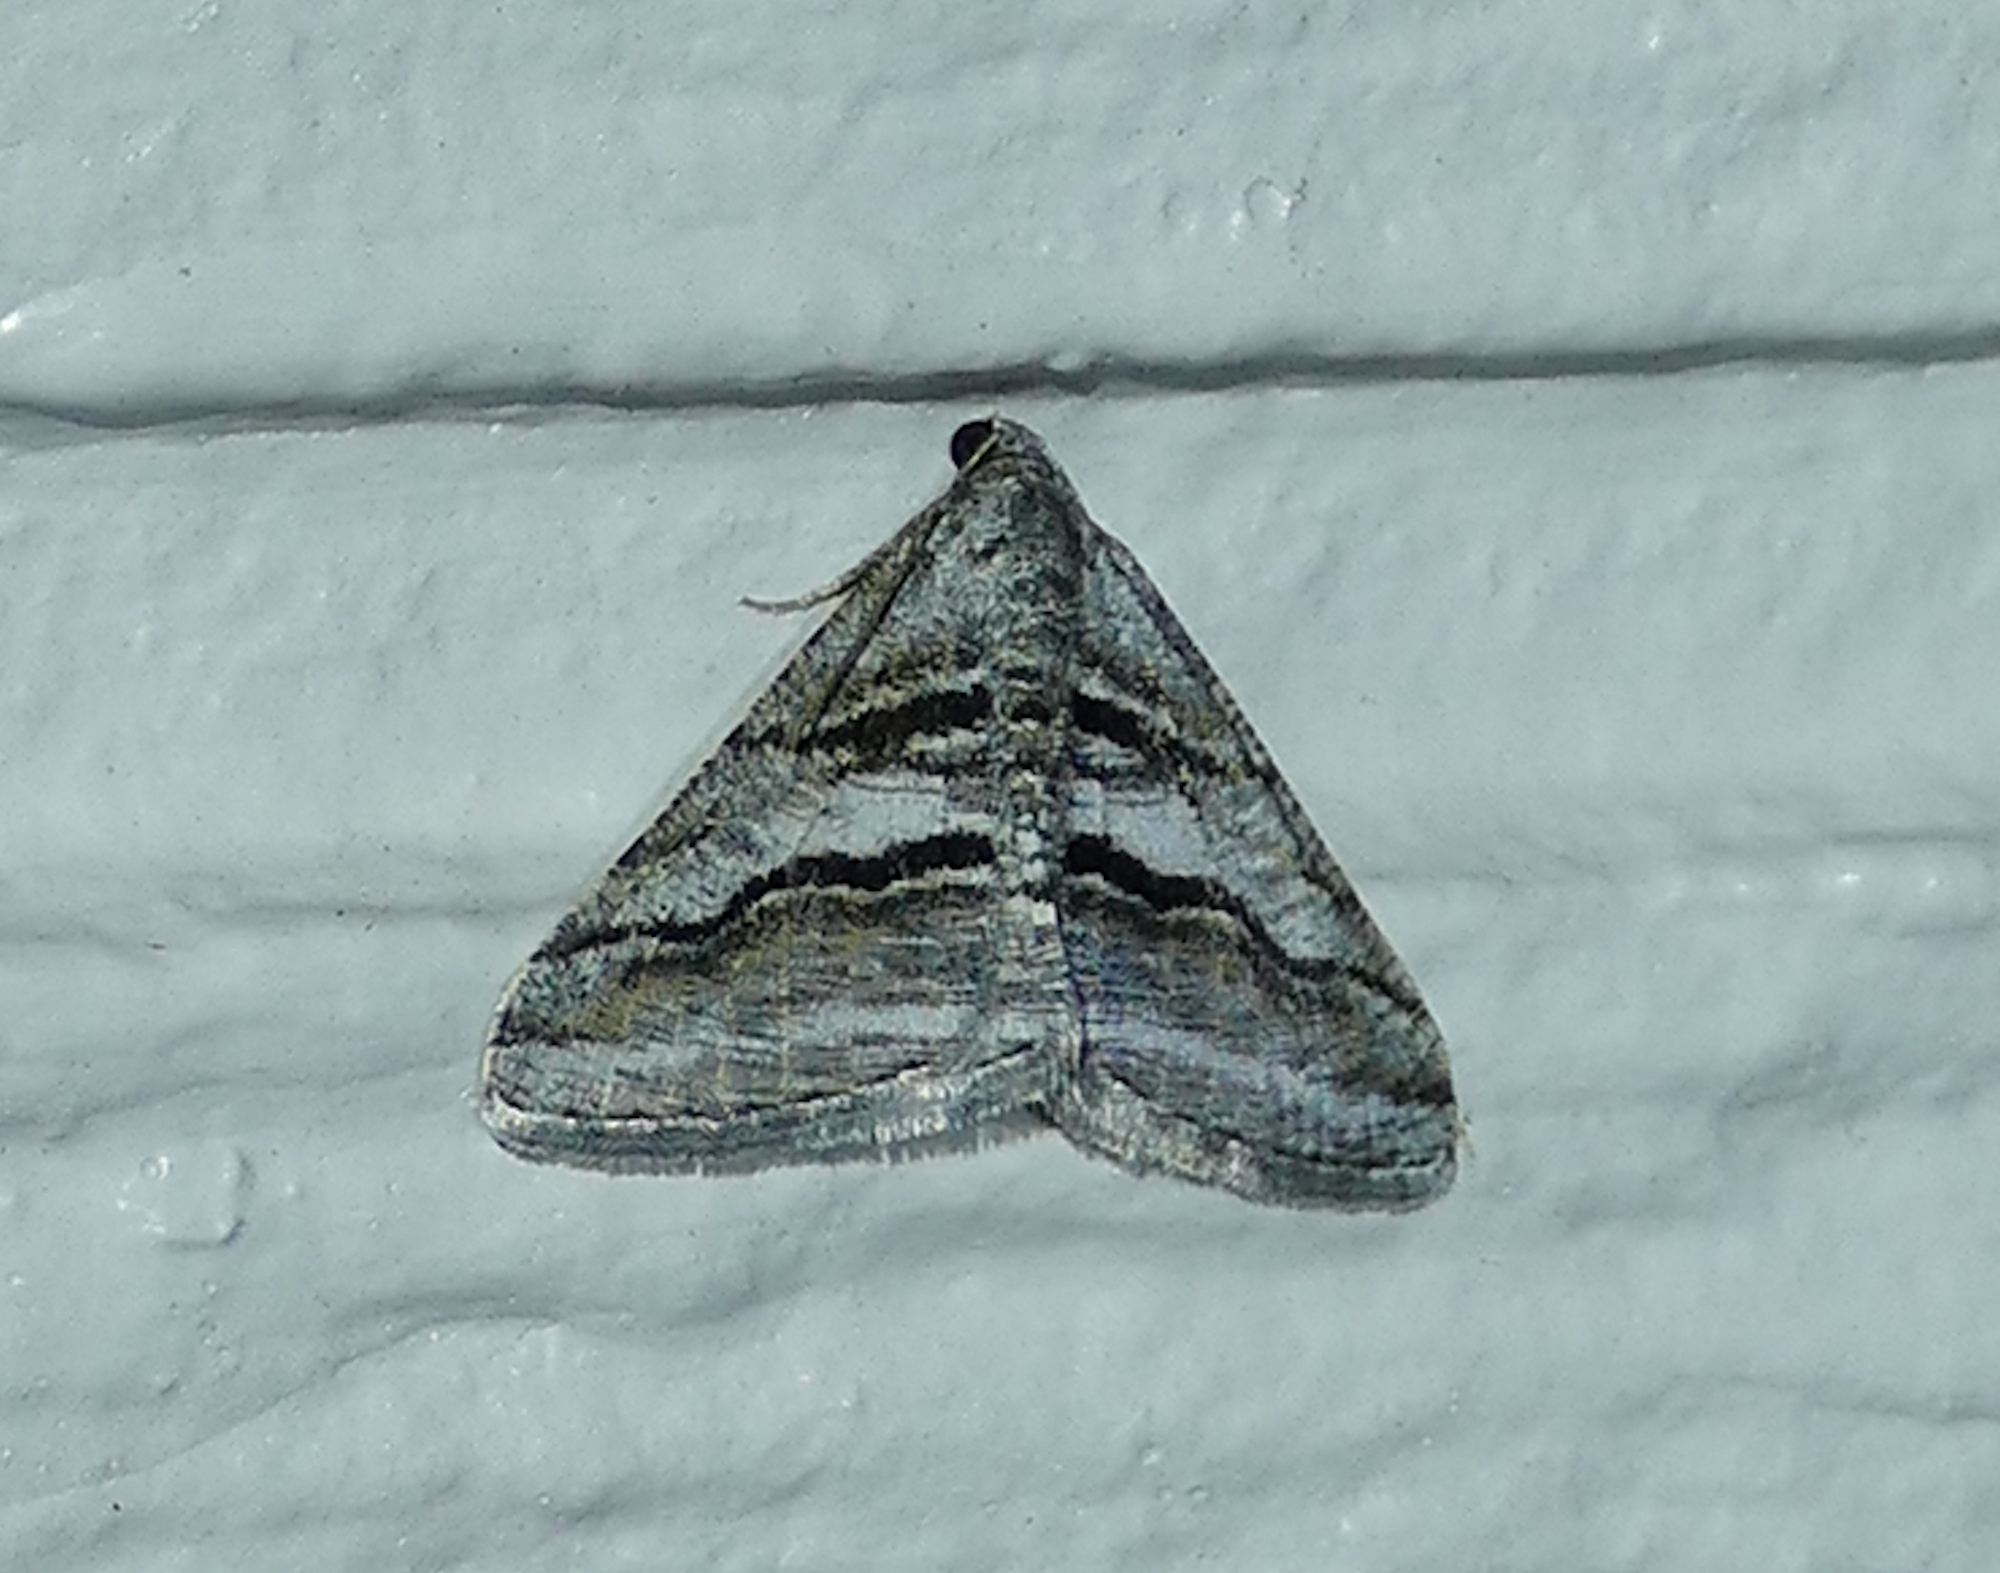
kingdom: Animalia
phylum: Arthropoda
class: Insecta
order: Lepidoptera
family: Geometridae
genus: Digrammia
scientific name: Digrammia atrofasciata
